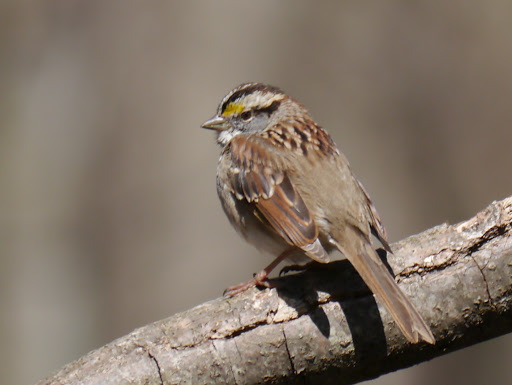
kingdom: Animalia
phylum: Chordata
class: Aves
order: Passeriformes
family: Passerellidae
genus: Zonotrichia
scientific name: Zonotrichia albicollis
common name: White-throated sparrow
